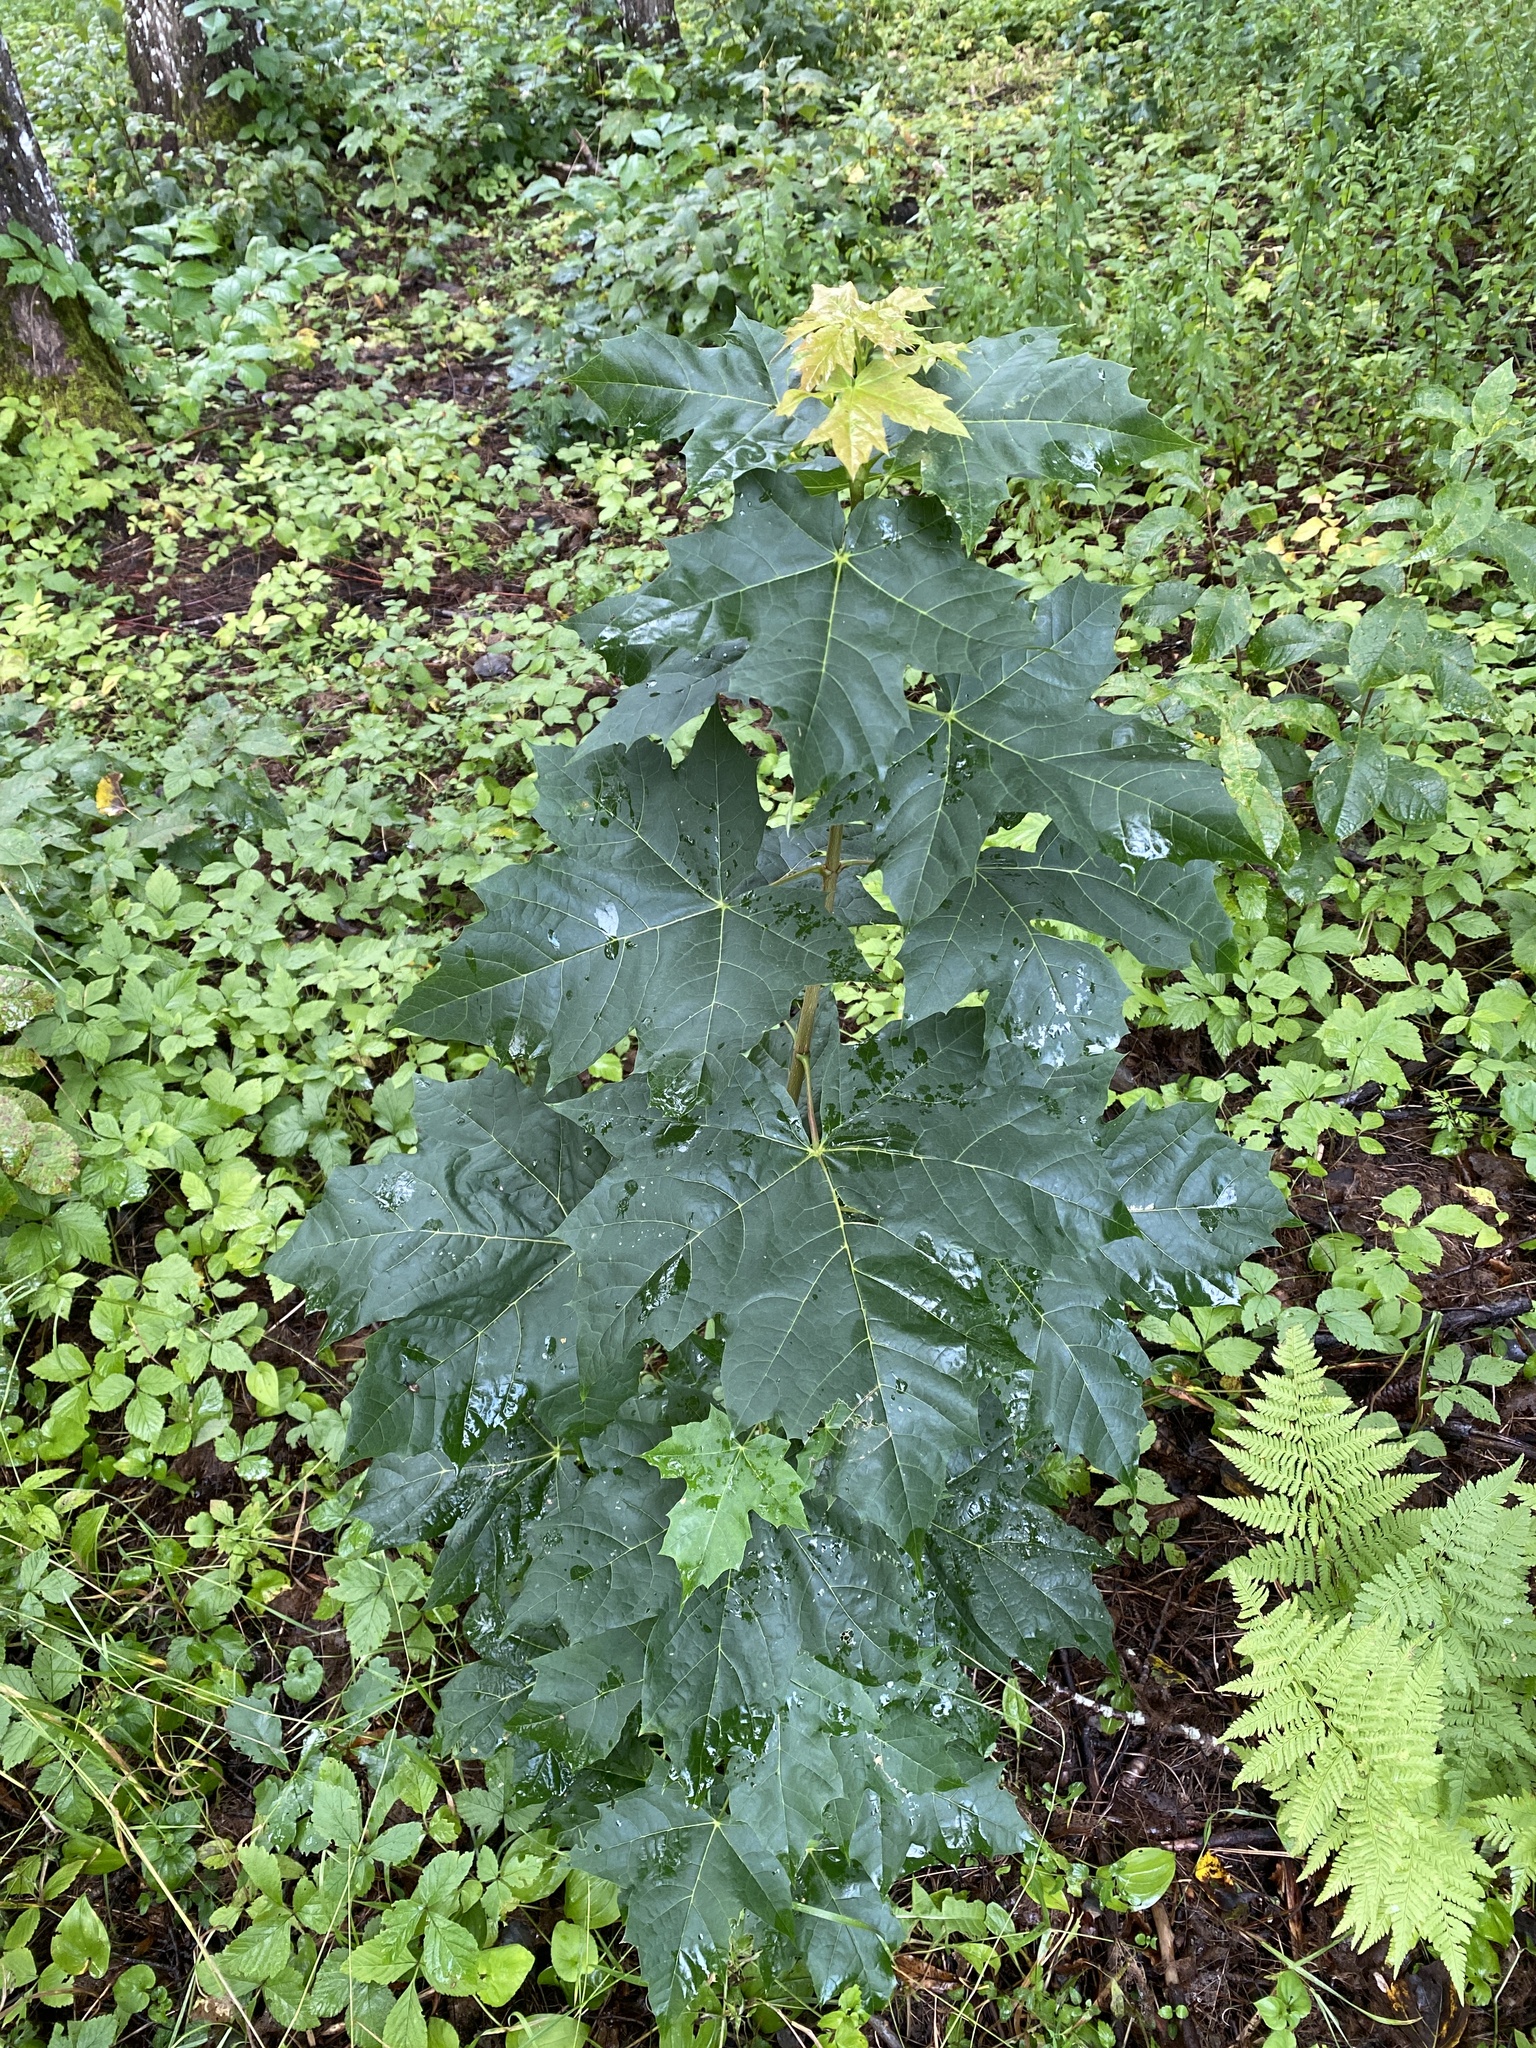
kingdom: Plantae
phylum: Tracheophyta
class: Magnoliopsida
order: Sapindales
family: Sapindaceae
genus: Acer
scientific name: Acer platanoides
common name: Norway maple
